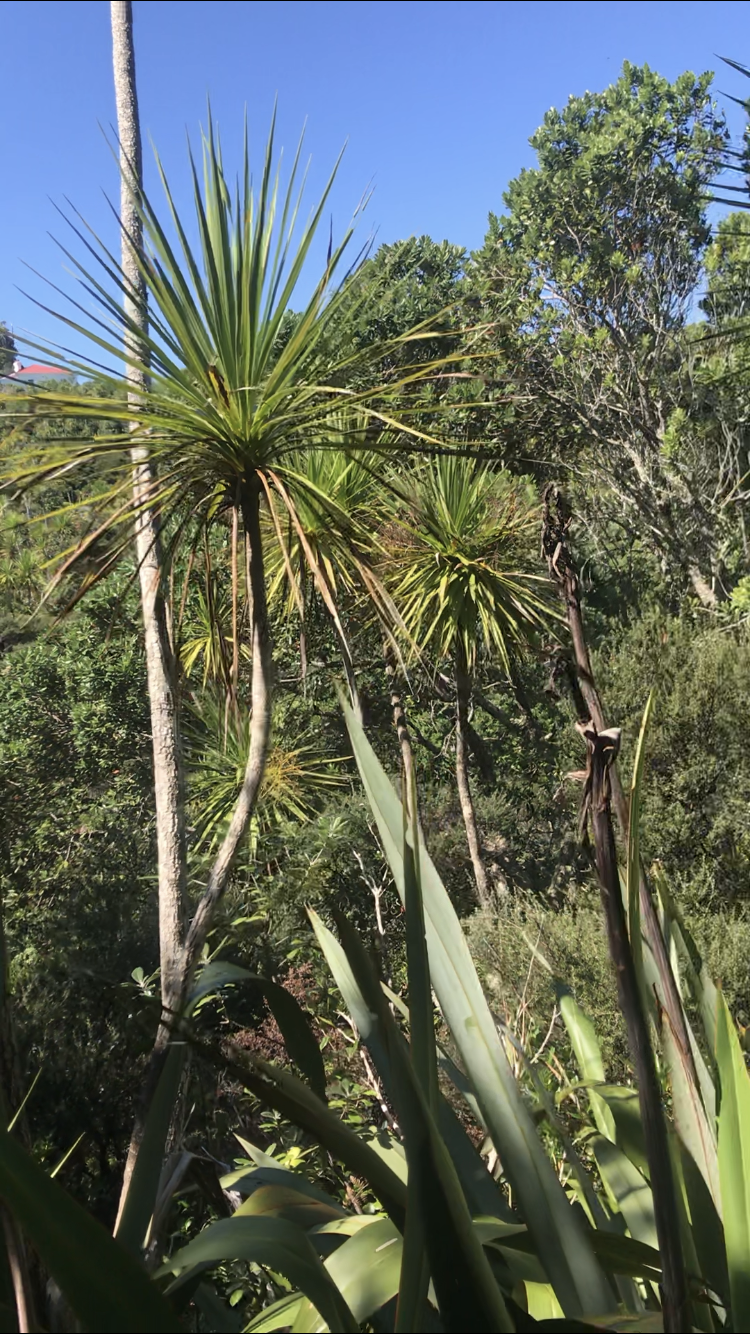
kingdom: Plantae
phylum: Tracheophyta
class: Liliopsida
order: Asparagales
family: Asparagaceae
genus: Cordyline
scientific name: Cordyline australis
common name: Cabbage-palm
